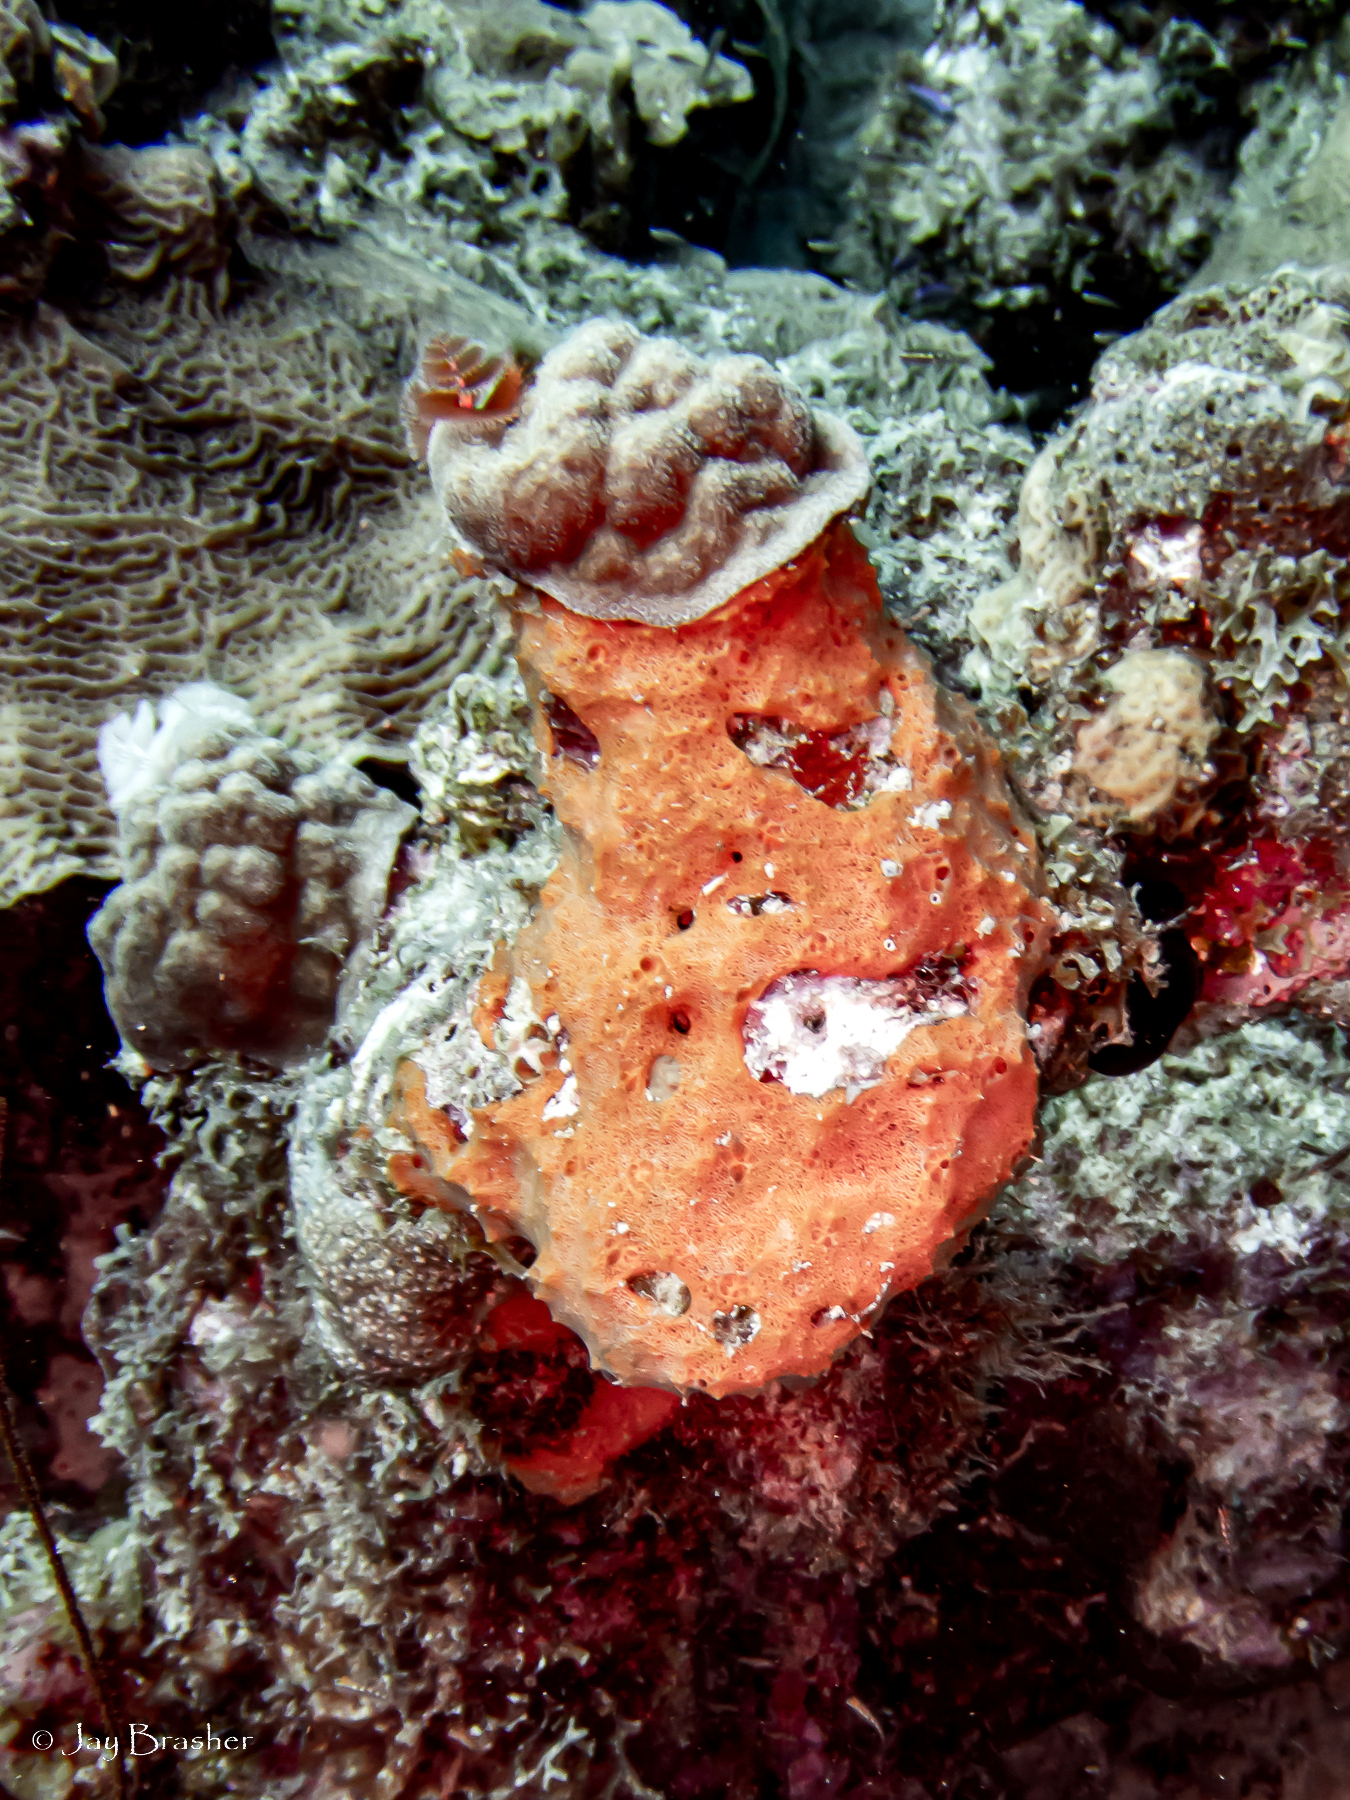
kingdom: Animalia
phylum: Cnidaria
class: Anthozoa
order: Scleractinia
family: Poritidae
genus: Porites
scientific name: Porites astreoides
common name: Mustard hill coral
